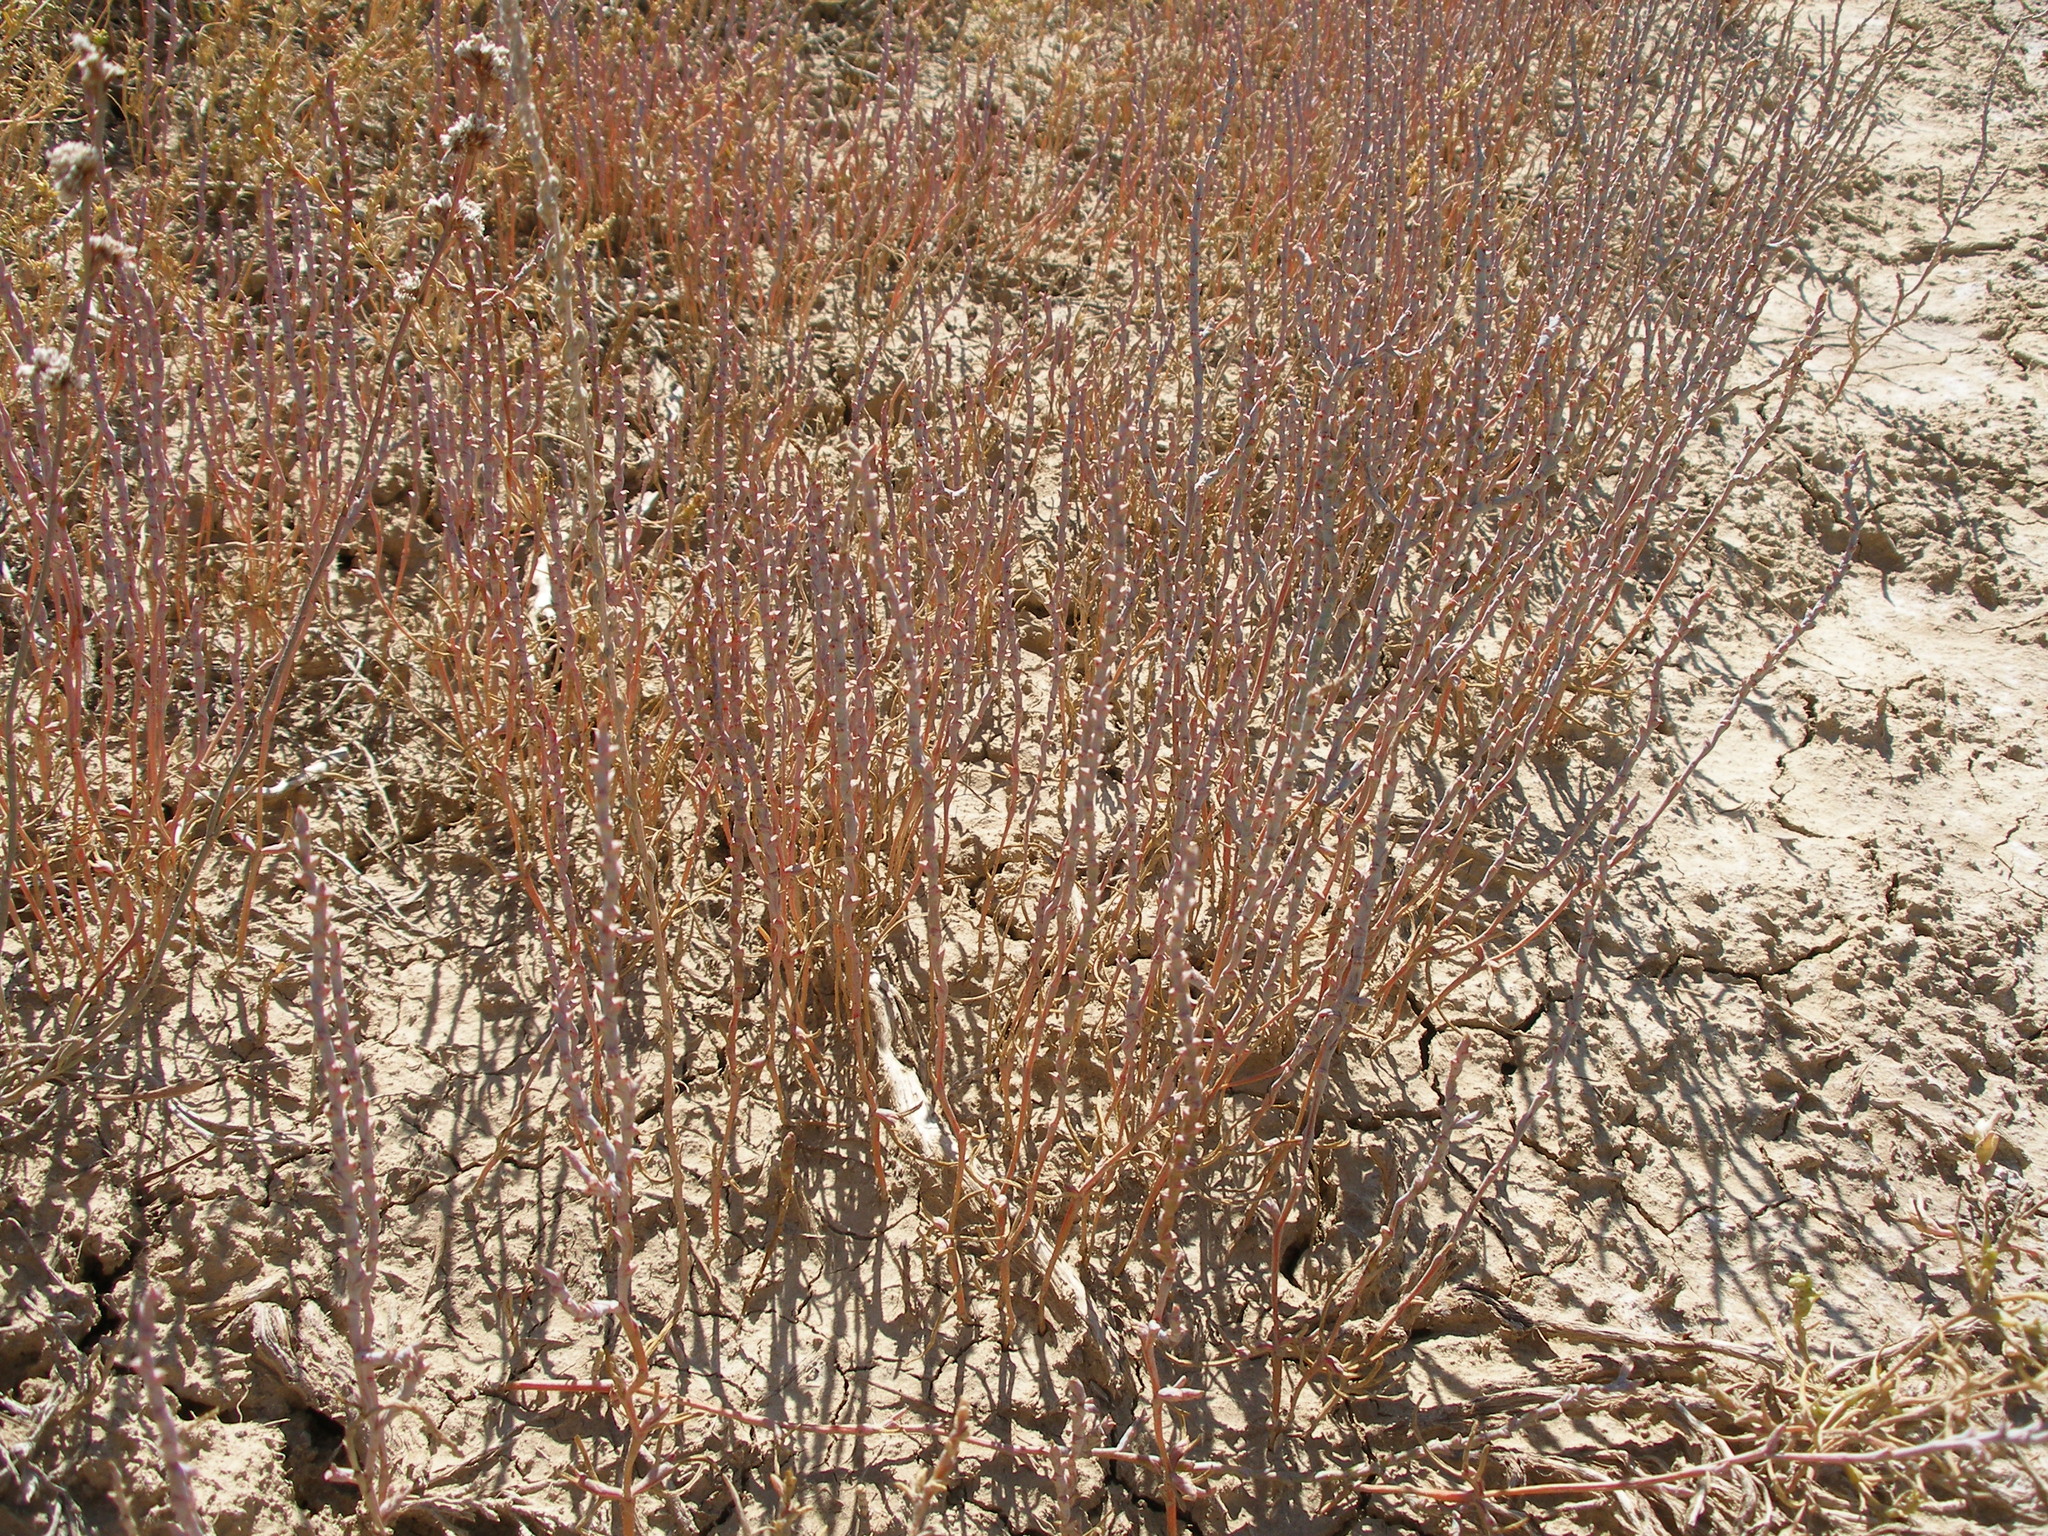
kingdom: Plantae
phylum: Tracheophyta
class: Magnoliopsida
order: Caryophyllales
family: Amaranthaceae
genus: Ofaiston
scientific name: Ofaiston monandrum
